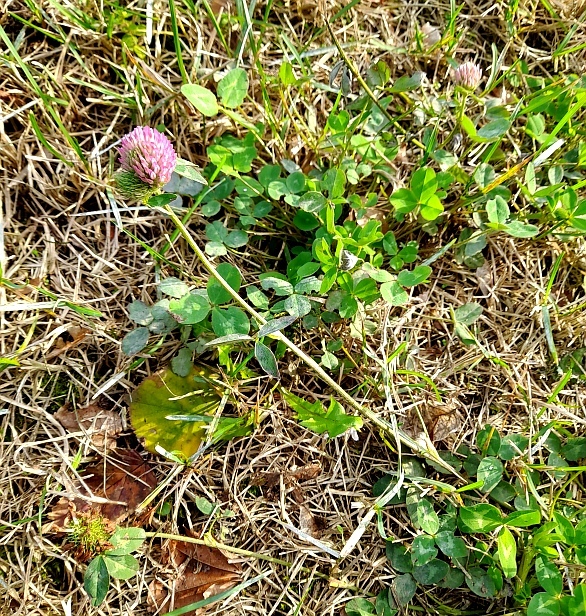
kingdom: Plantae
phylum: Tracheophyta
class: Magnoliopsida
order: Fabales
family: Fabaceae
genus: Trifolium
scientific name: Trifolium pratense
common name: Red clover
